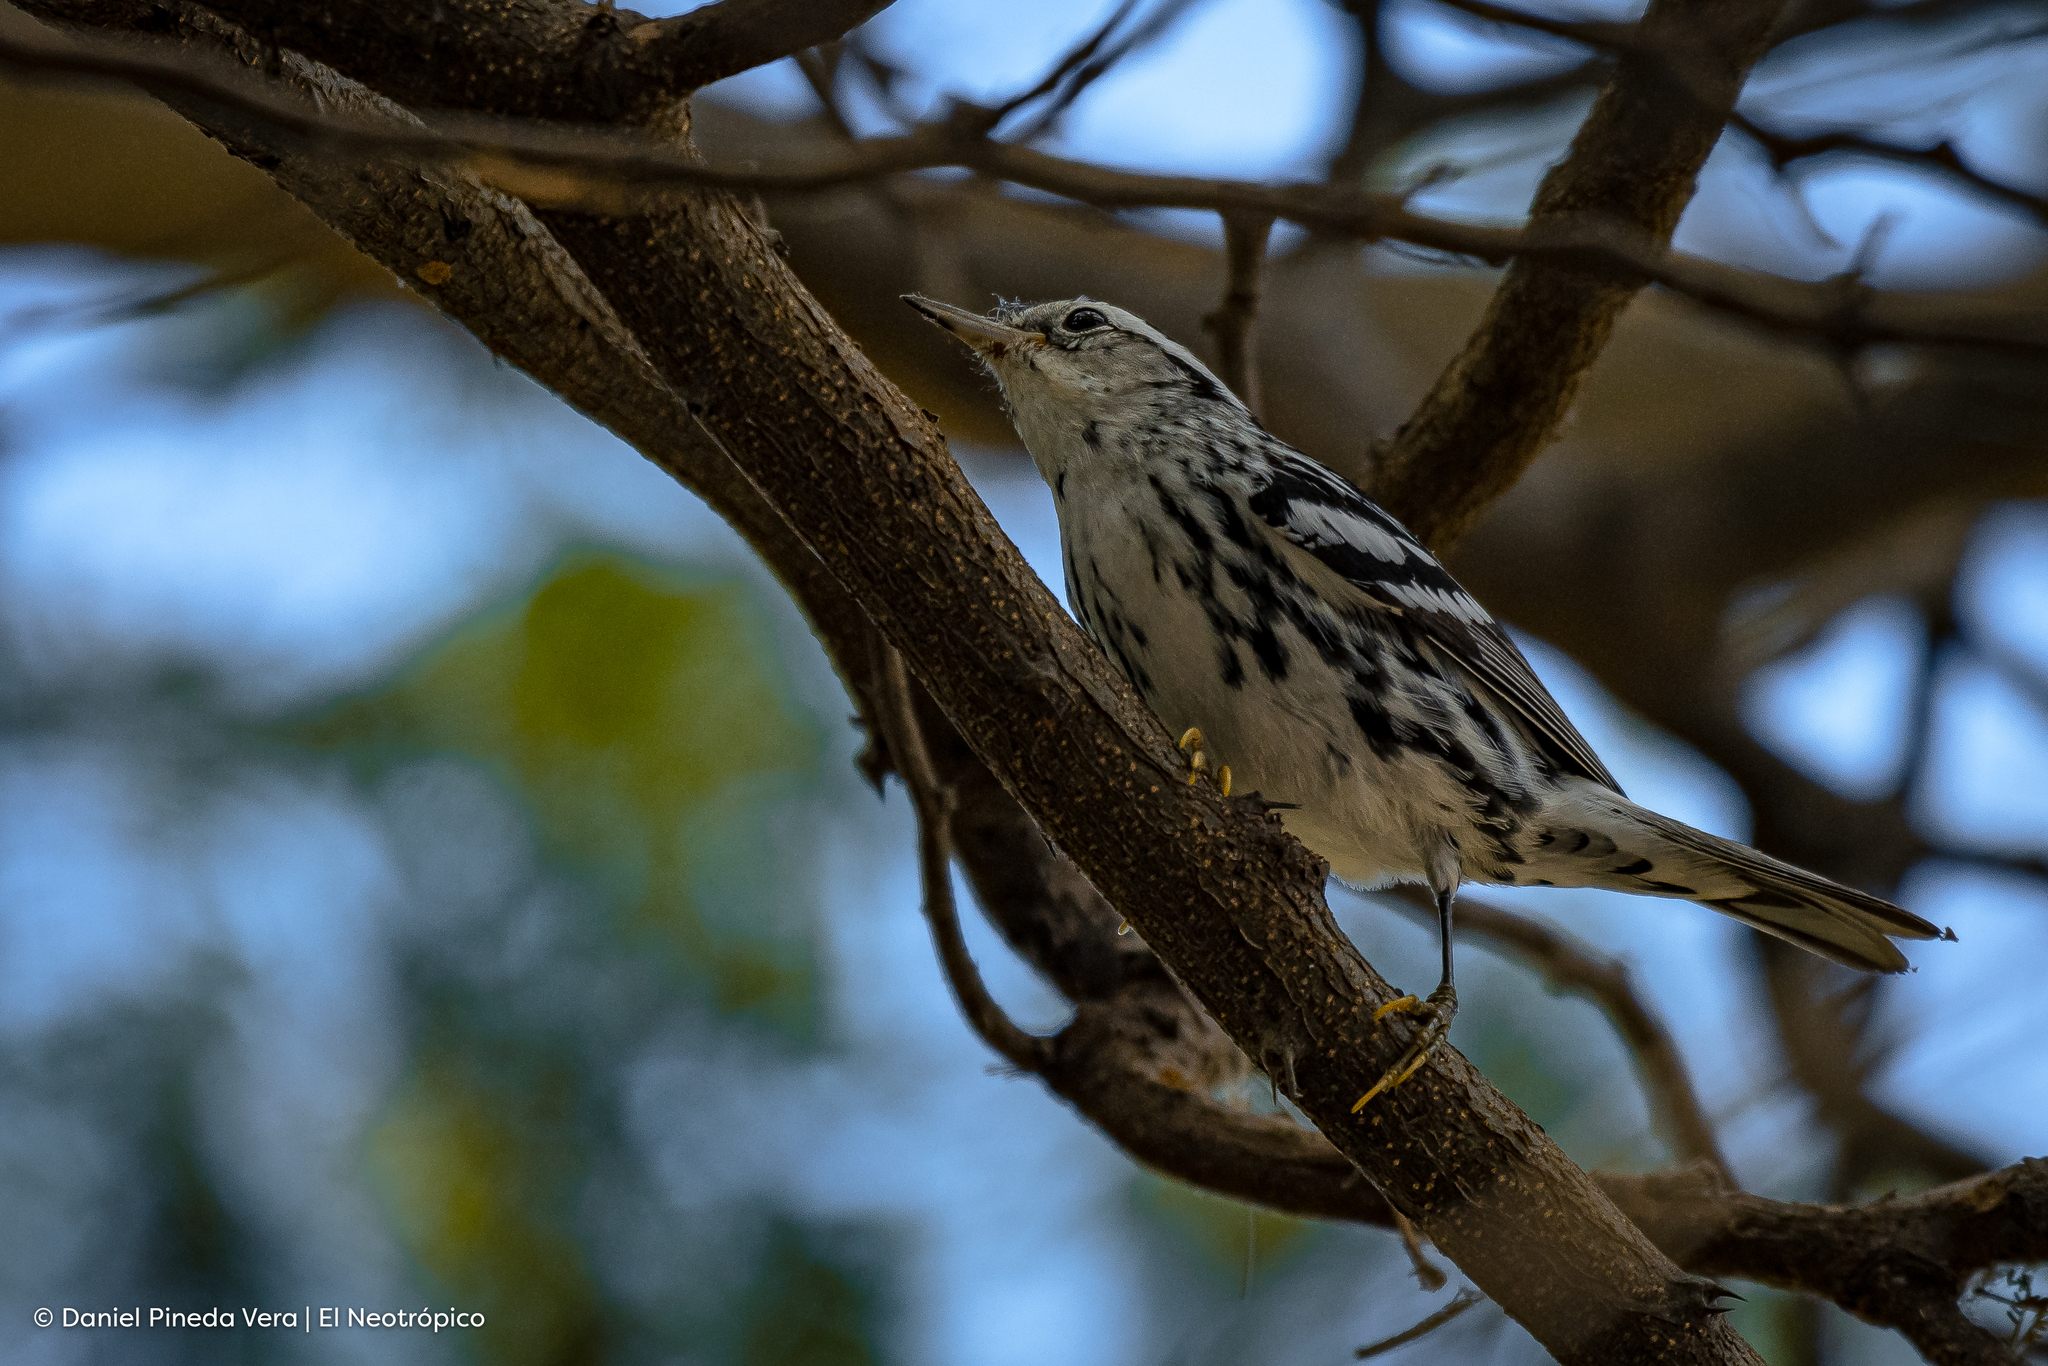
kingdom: Animalia
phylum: Chordata
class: Aves
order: Passeriformes
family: Parulidae
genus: Mniotilta
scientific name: Mniotilta varia
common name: Black-and-white warbler
